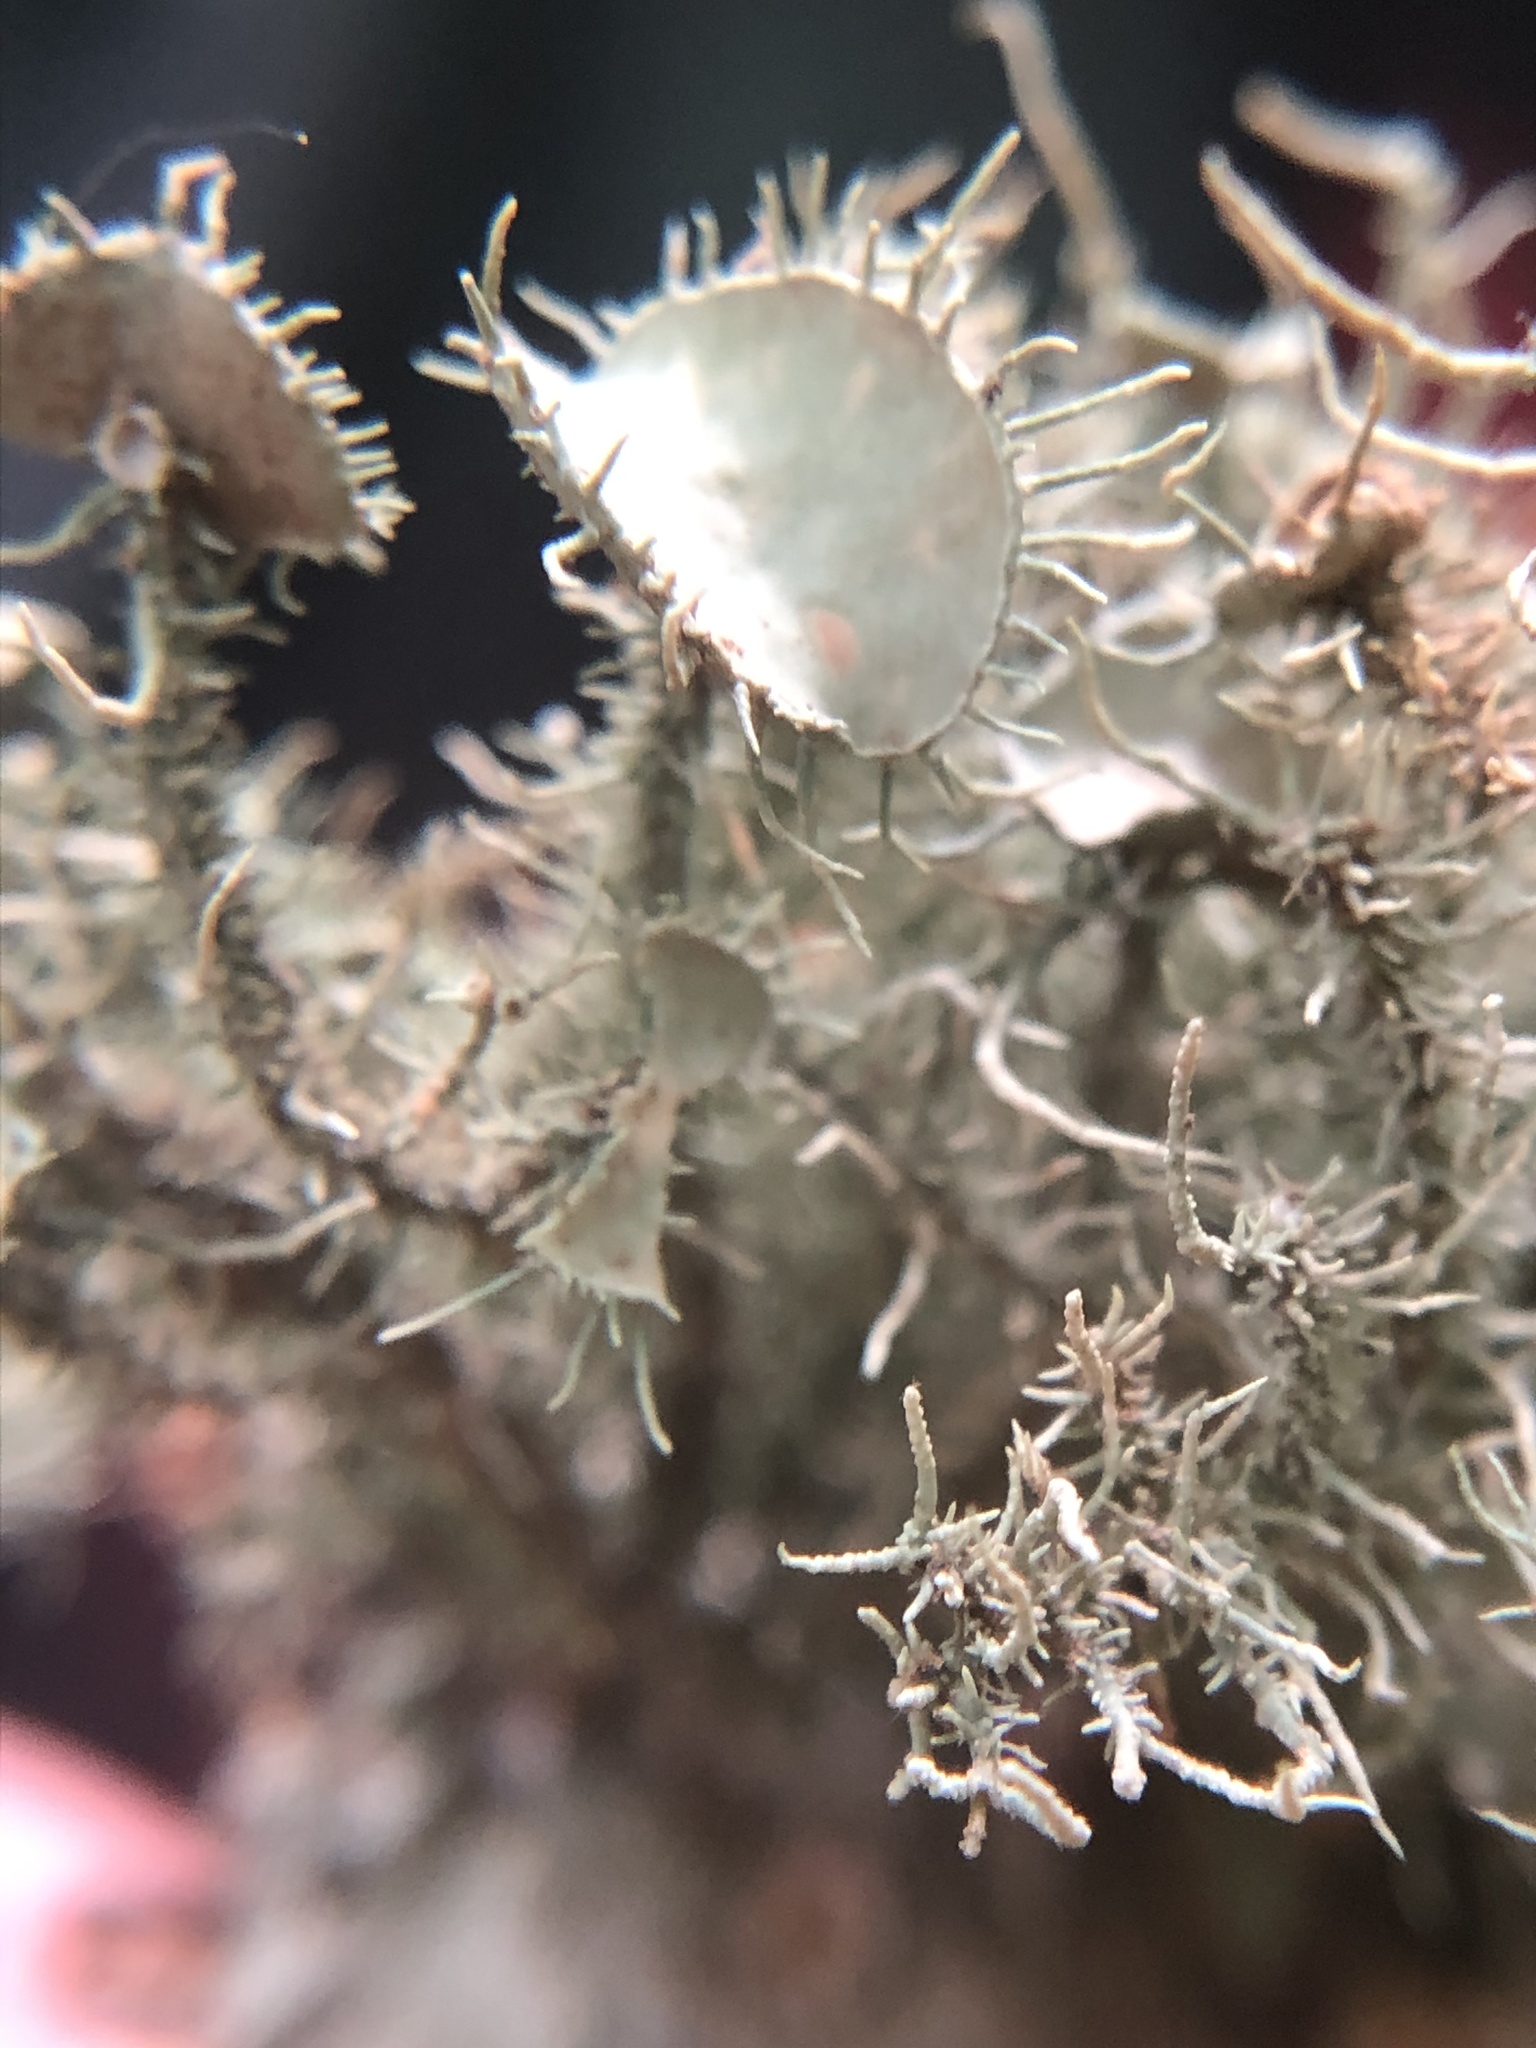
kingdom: Fungi
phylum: Ascomycota
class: Lecanoromycetes
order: Lecanorales
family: Parmeliaceae
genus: Usnea
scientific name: Usnea strigosa
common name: Bushy beard lichen
